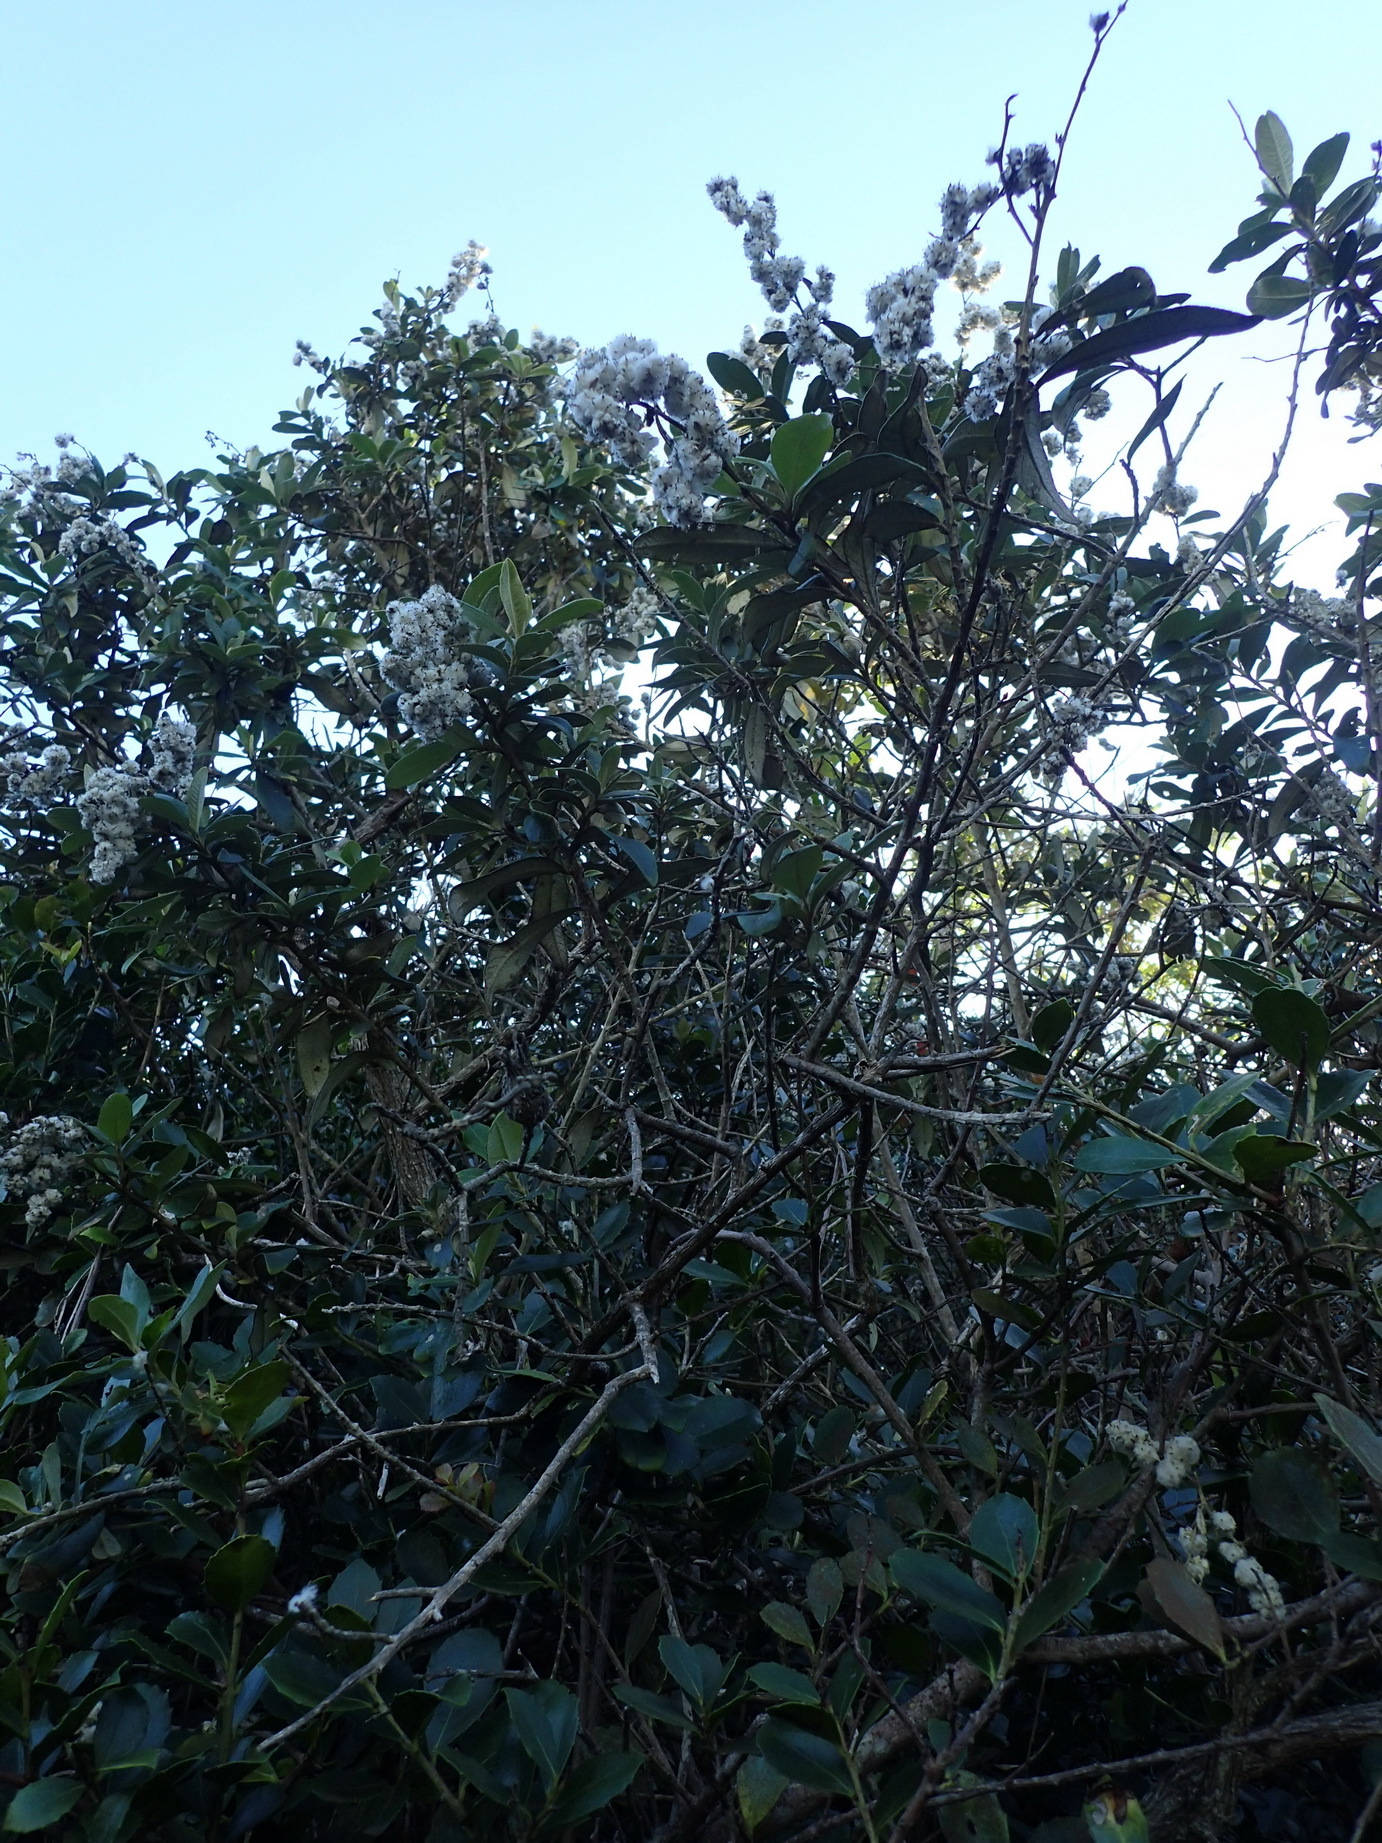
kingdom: Plantae
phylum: Tracheophyta
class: Magnoliopsida
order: Asterales
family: Asteraceae
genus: Tarchonanthus
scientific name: Tarchonanthus littoralis
